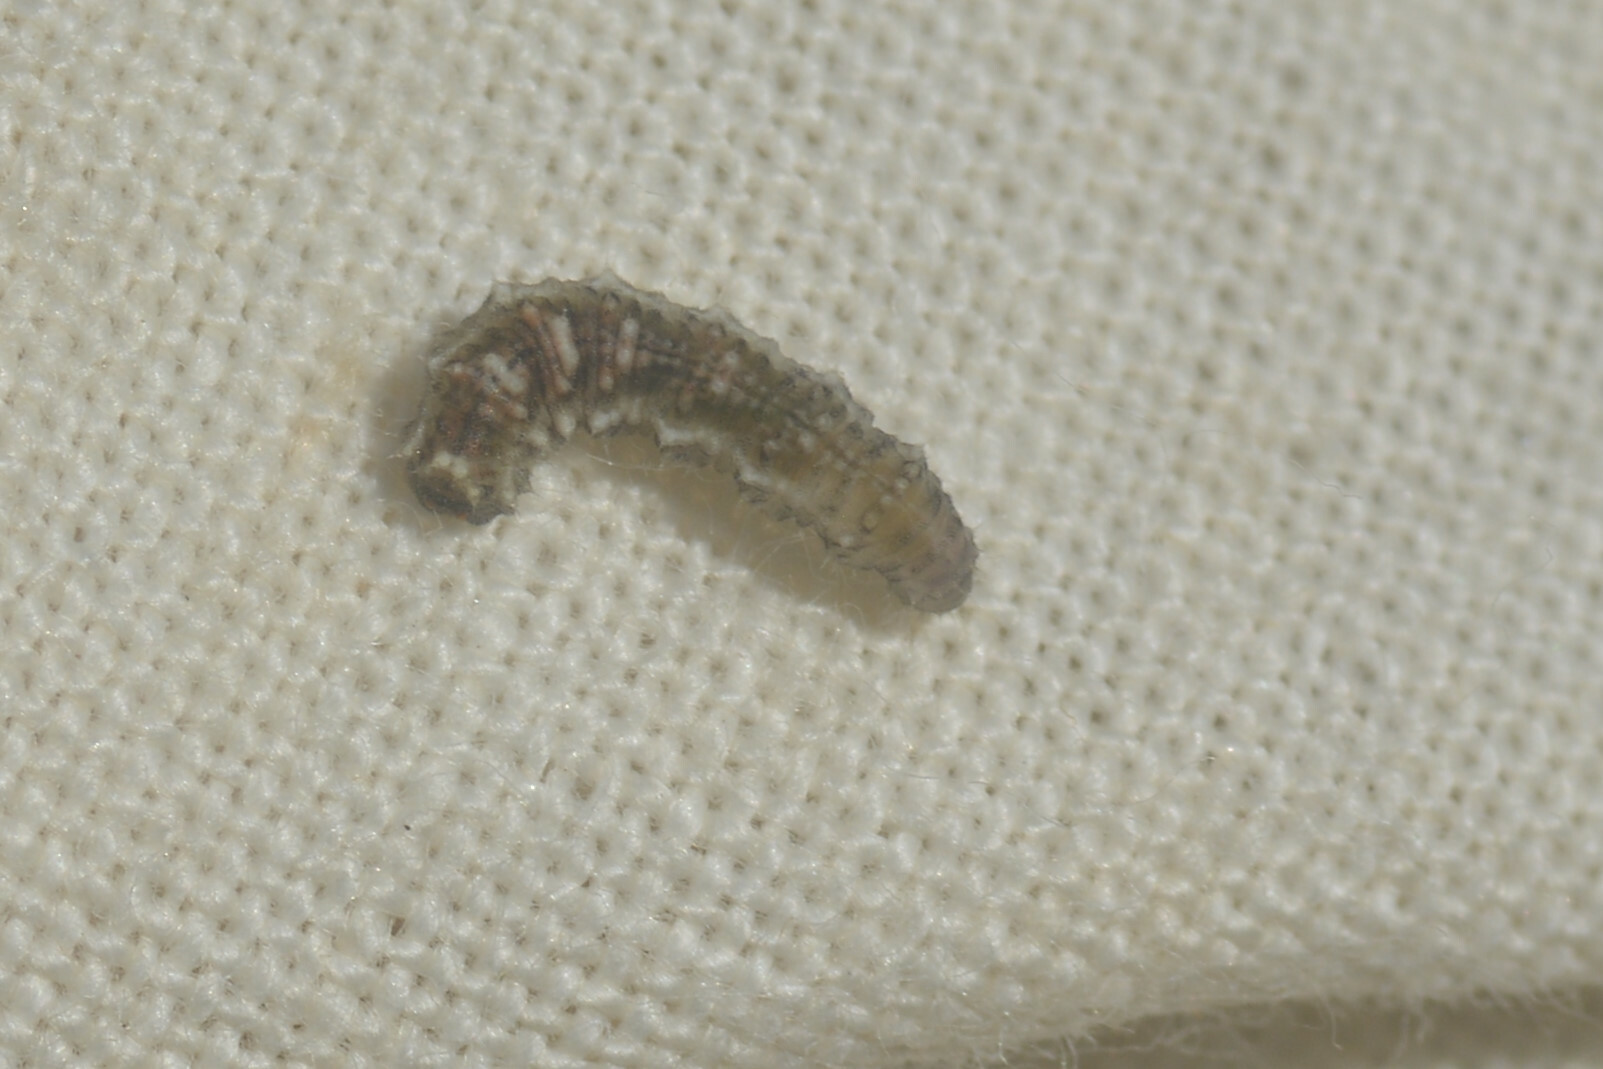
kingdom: Animalia
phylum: Arthropoda
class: Insecta
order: Diptera
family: Syrphidae
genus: Eupeodes
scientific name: Eupeodes
